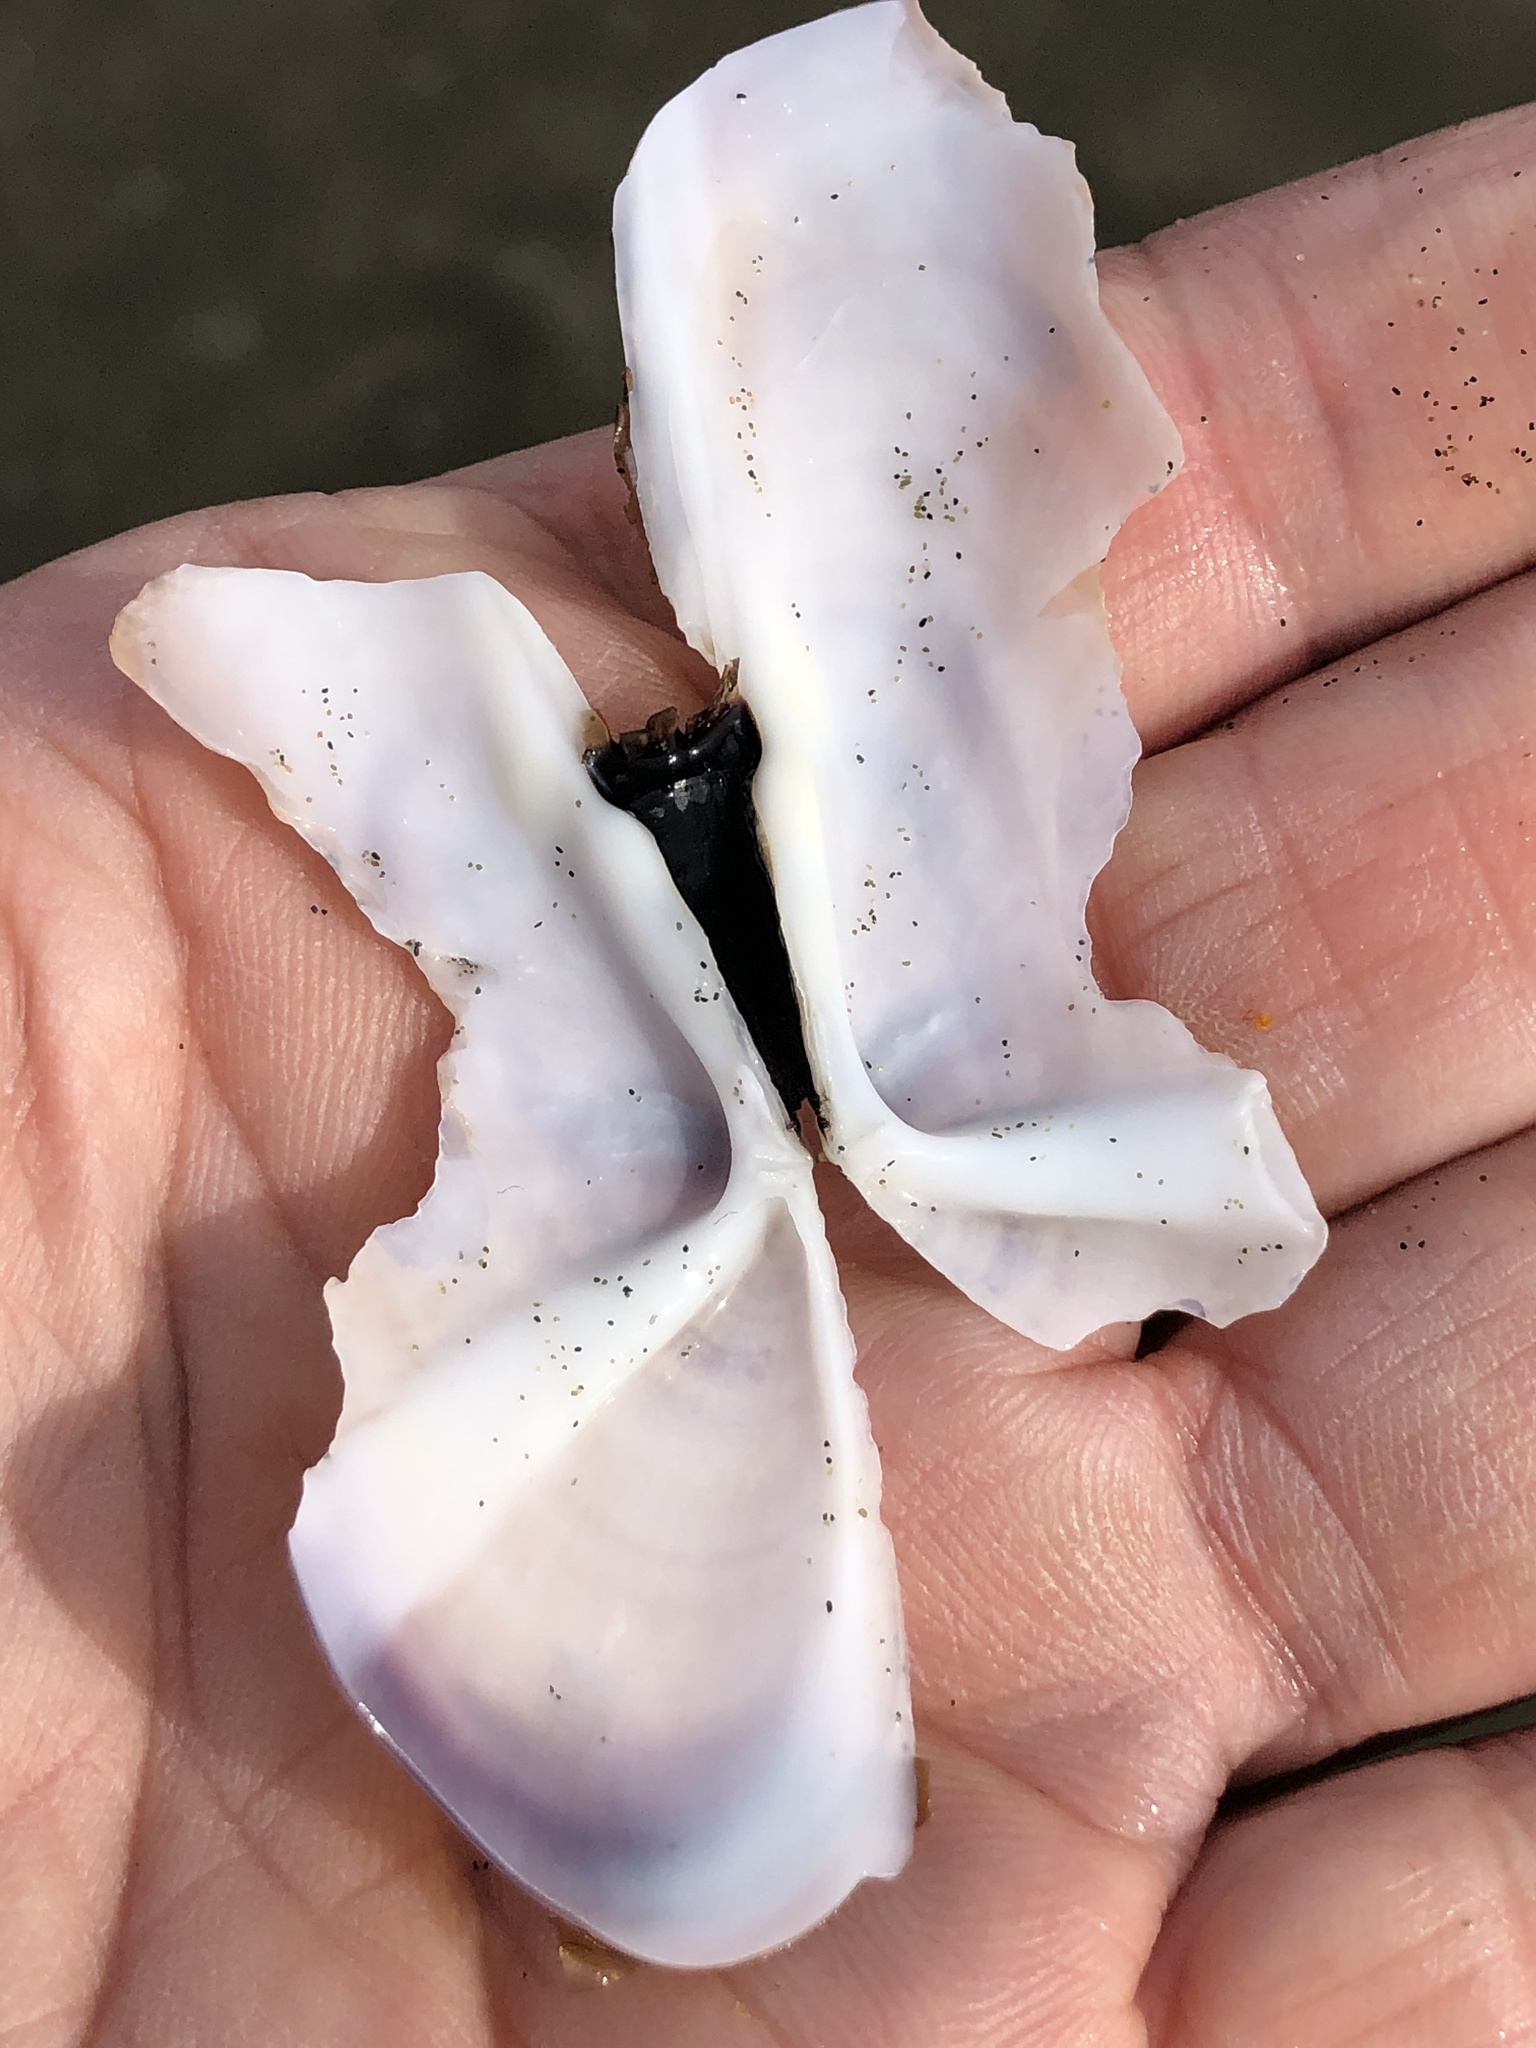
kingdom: Animalia
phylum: Mollusca
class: Bivalvia
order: Adapedonta
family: Pharidae
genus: Siliqua
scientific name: Siliqua patula
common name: Pacific razor clam
